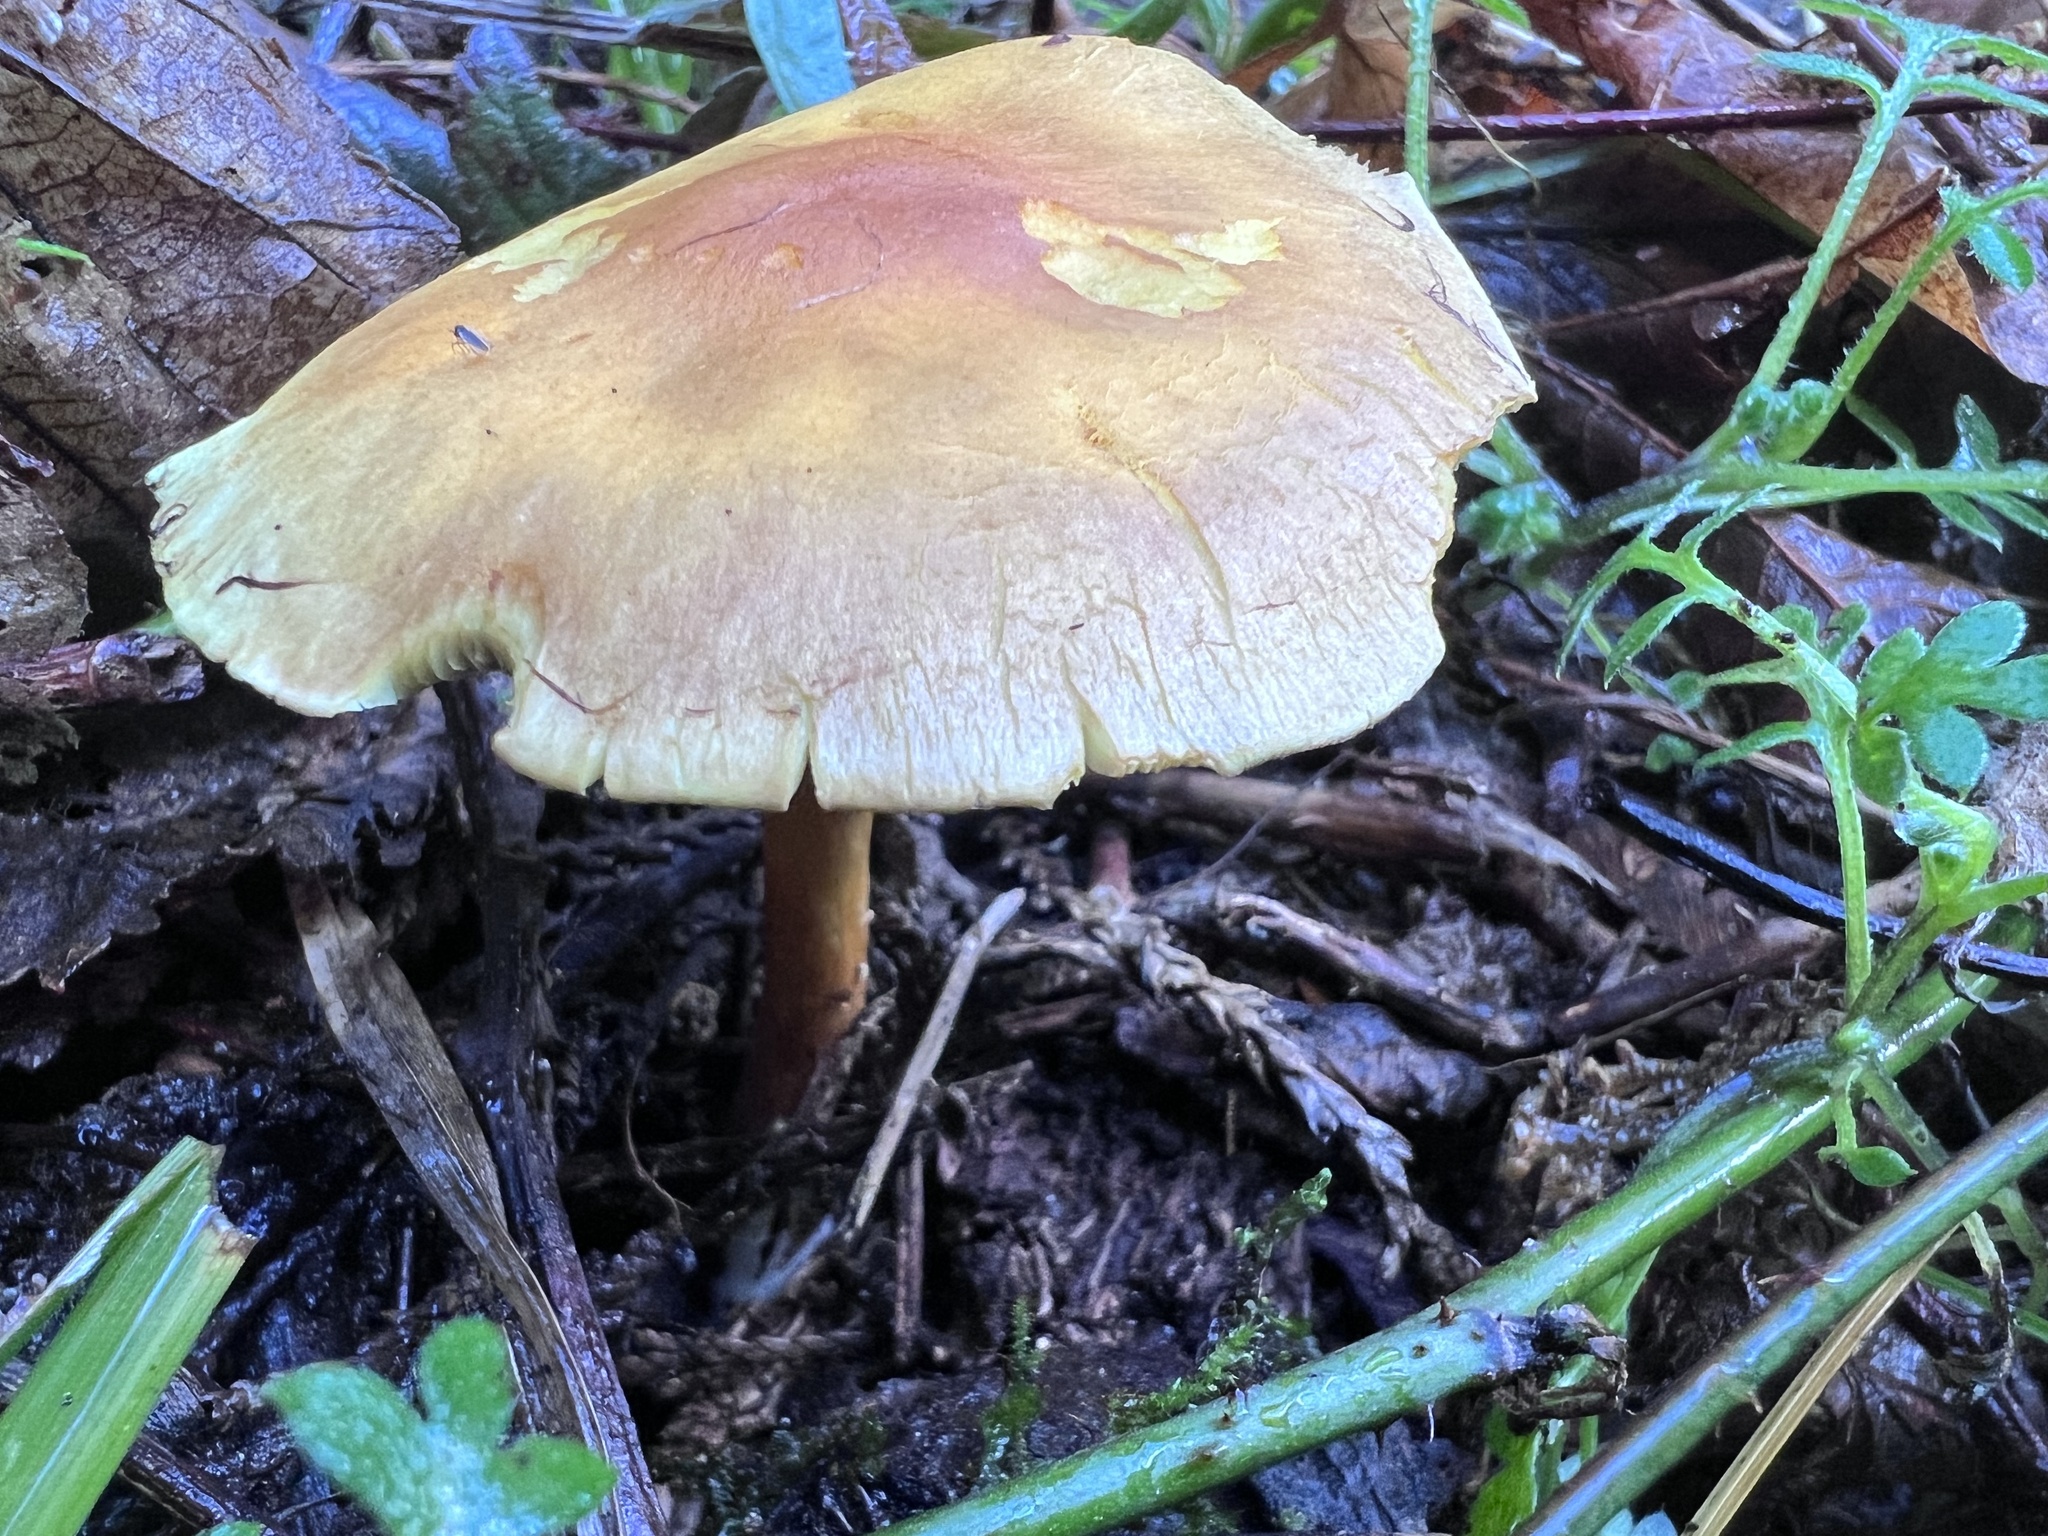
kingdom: Fungi
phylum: Basidiomycota
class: Agaricomycetes
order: Agaricales
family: Strophariaceae
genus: Hypholoma
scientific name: Hypholoma fasciculare
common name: Sulphur tuft
